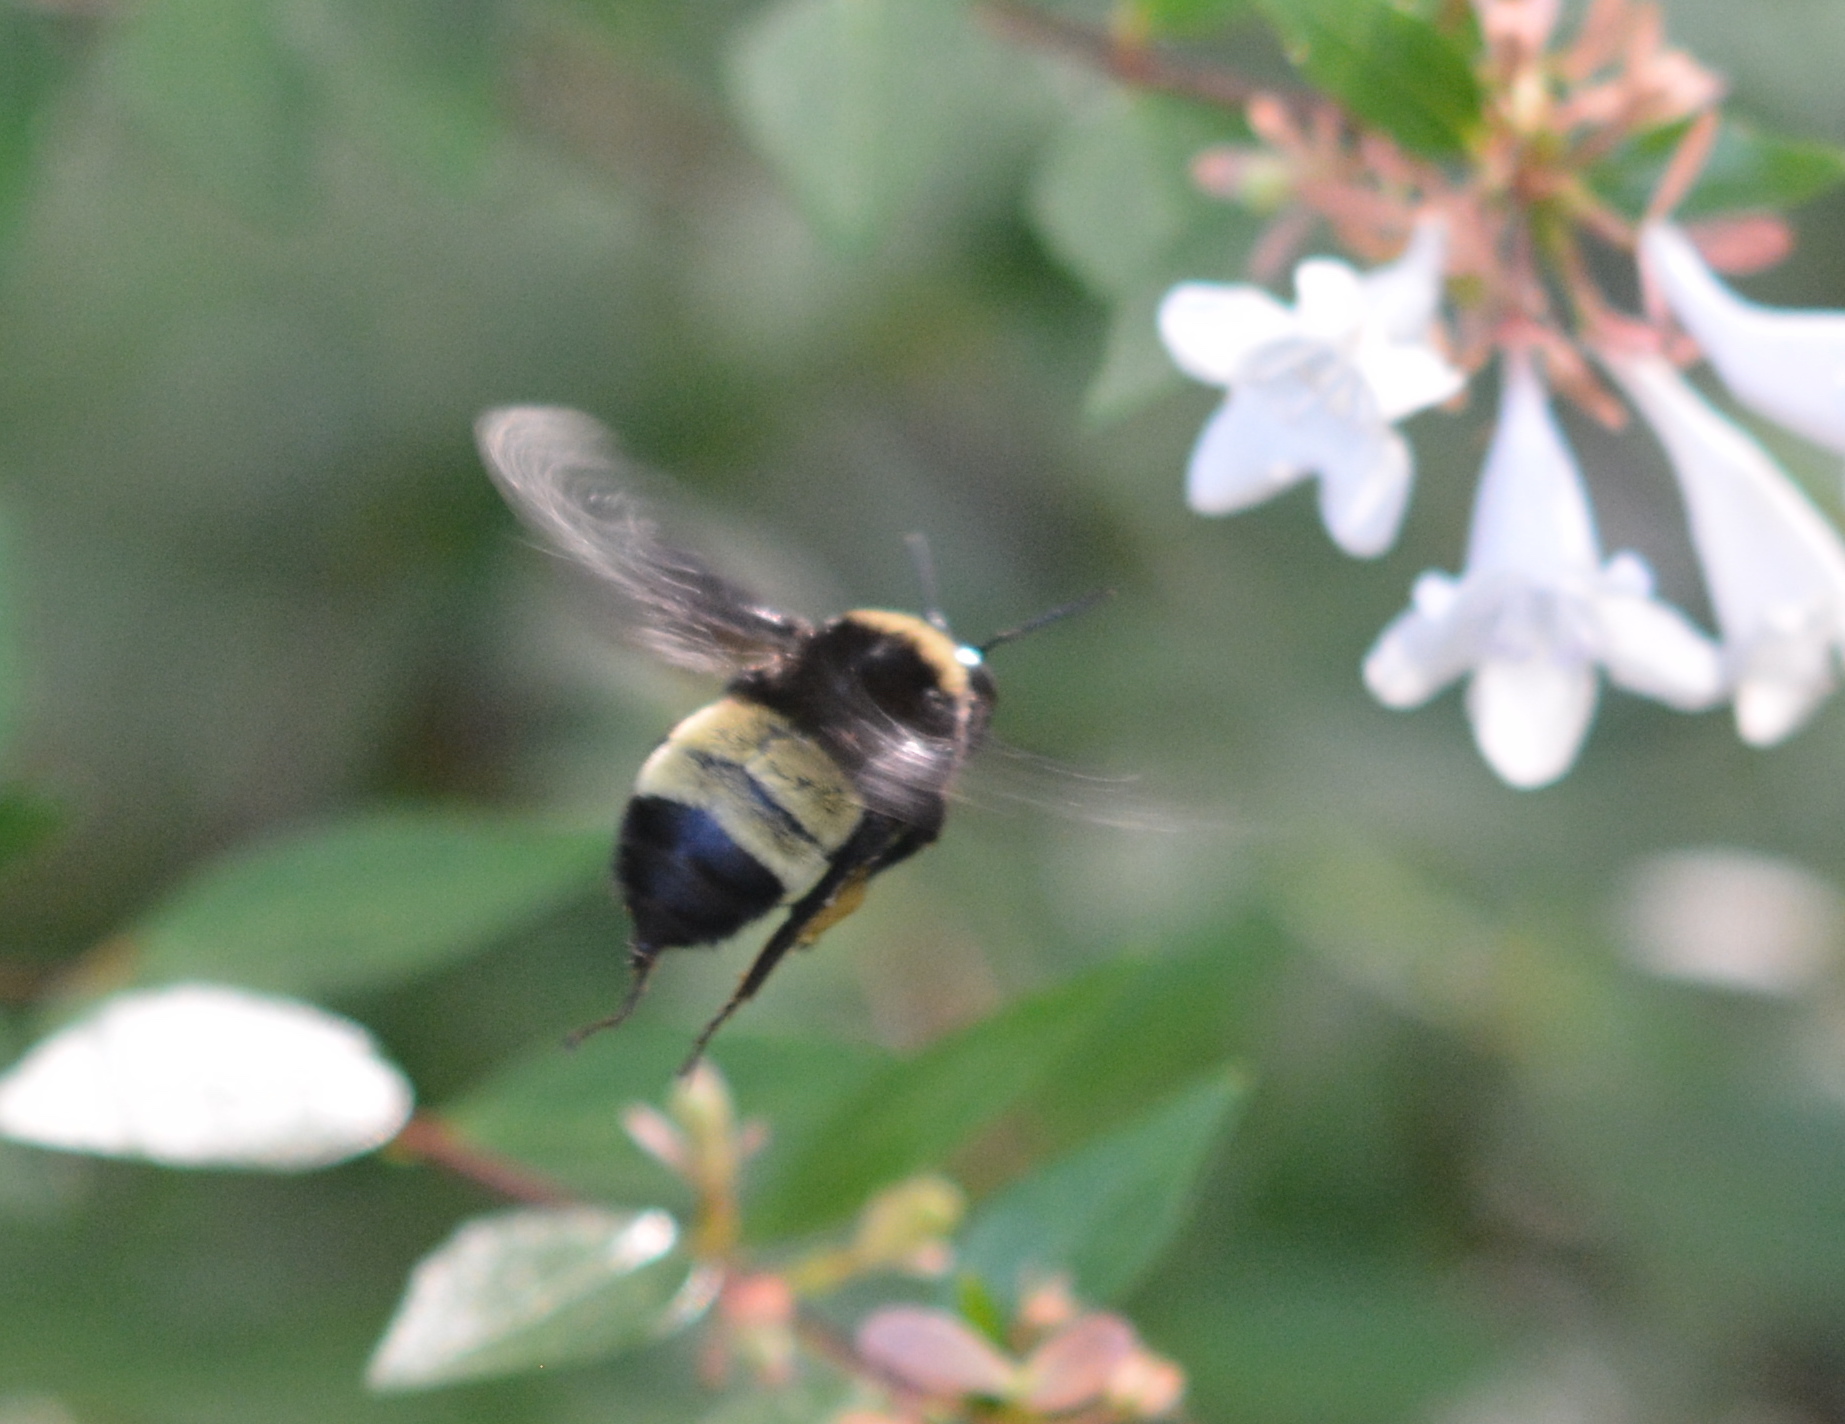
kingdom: Animalia
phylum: Arthropoda
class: Insecta
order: Hymenoptera
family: Apidae
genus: Bombus
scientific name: Bombus pensylvanicus
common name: Bumble bee
